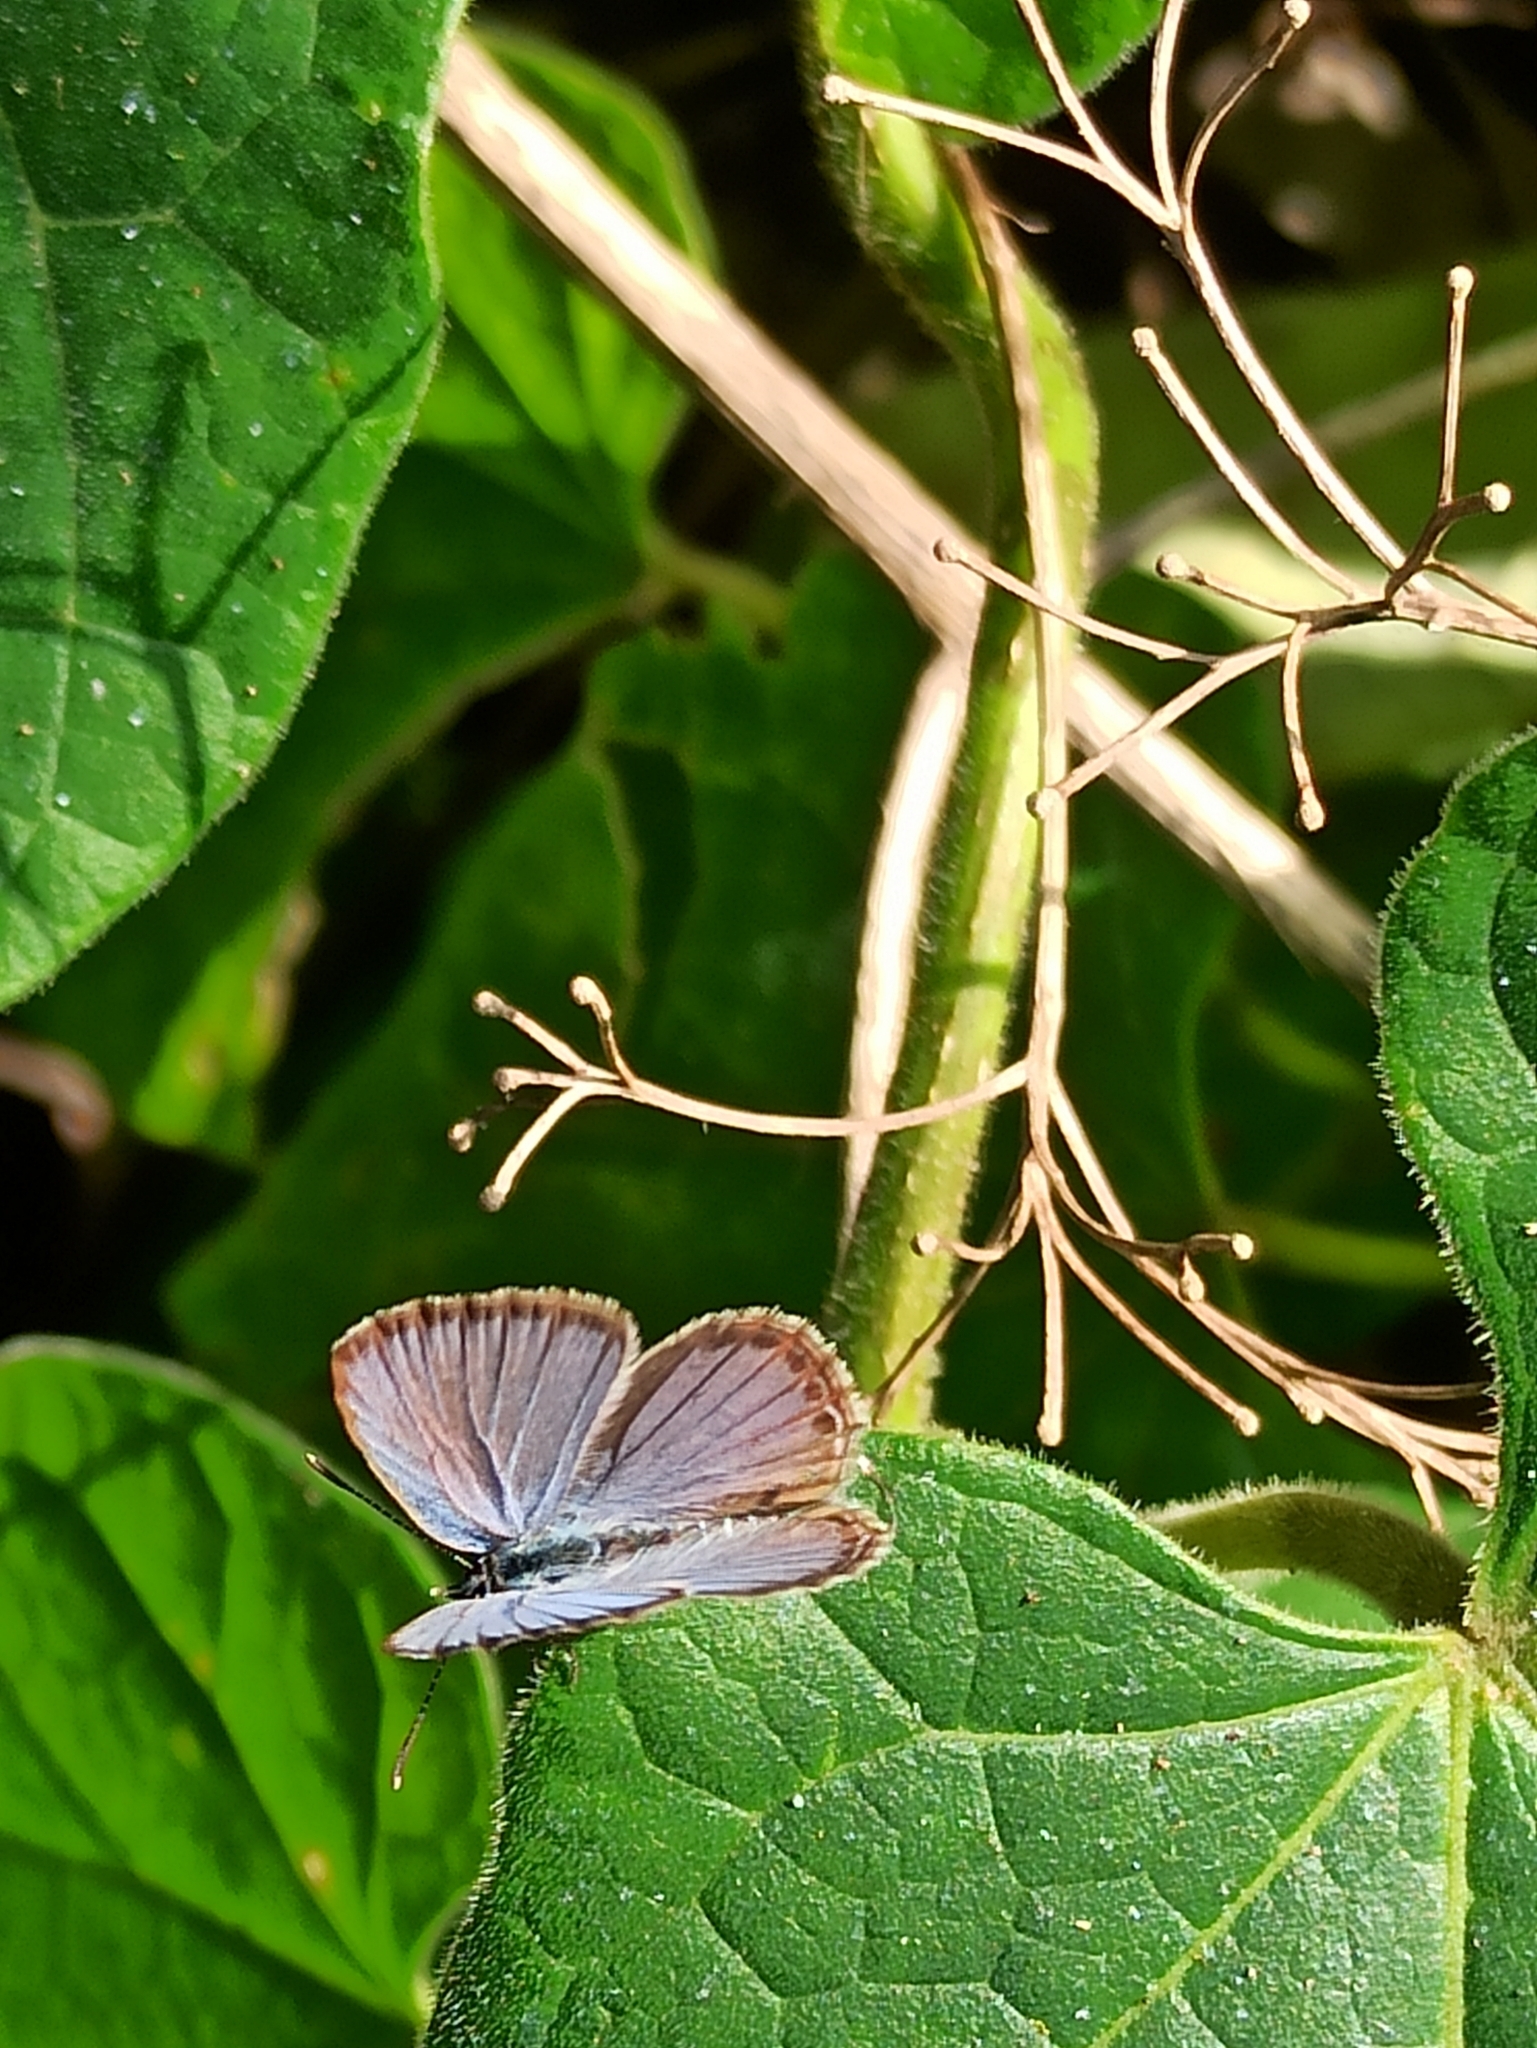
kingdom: Animalia
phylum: Arthropoda
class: Insecta
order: Lepidoptera
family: Lycaenidae
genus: Luthrodes
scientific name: Luthrodes pandava
